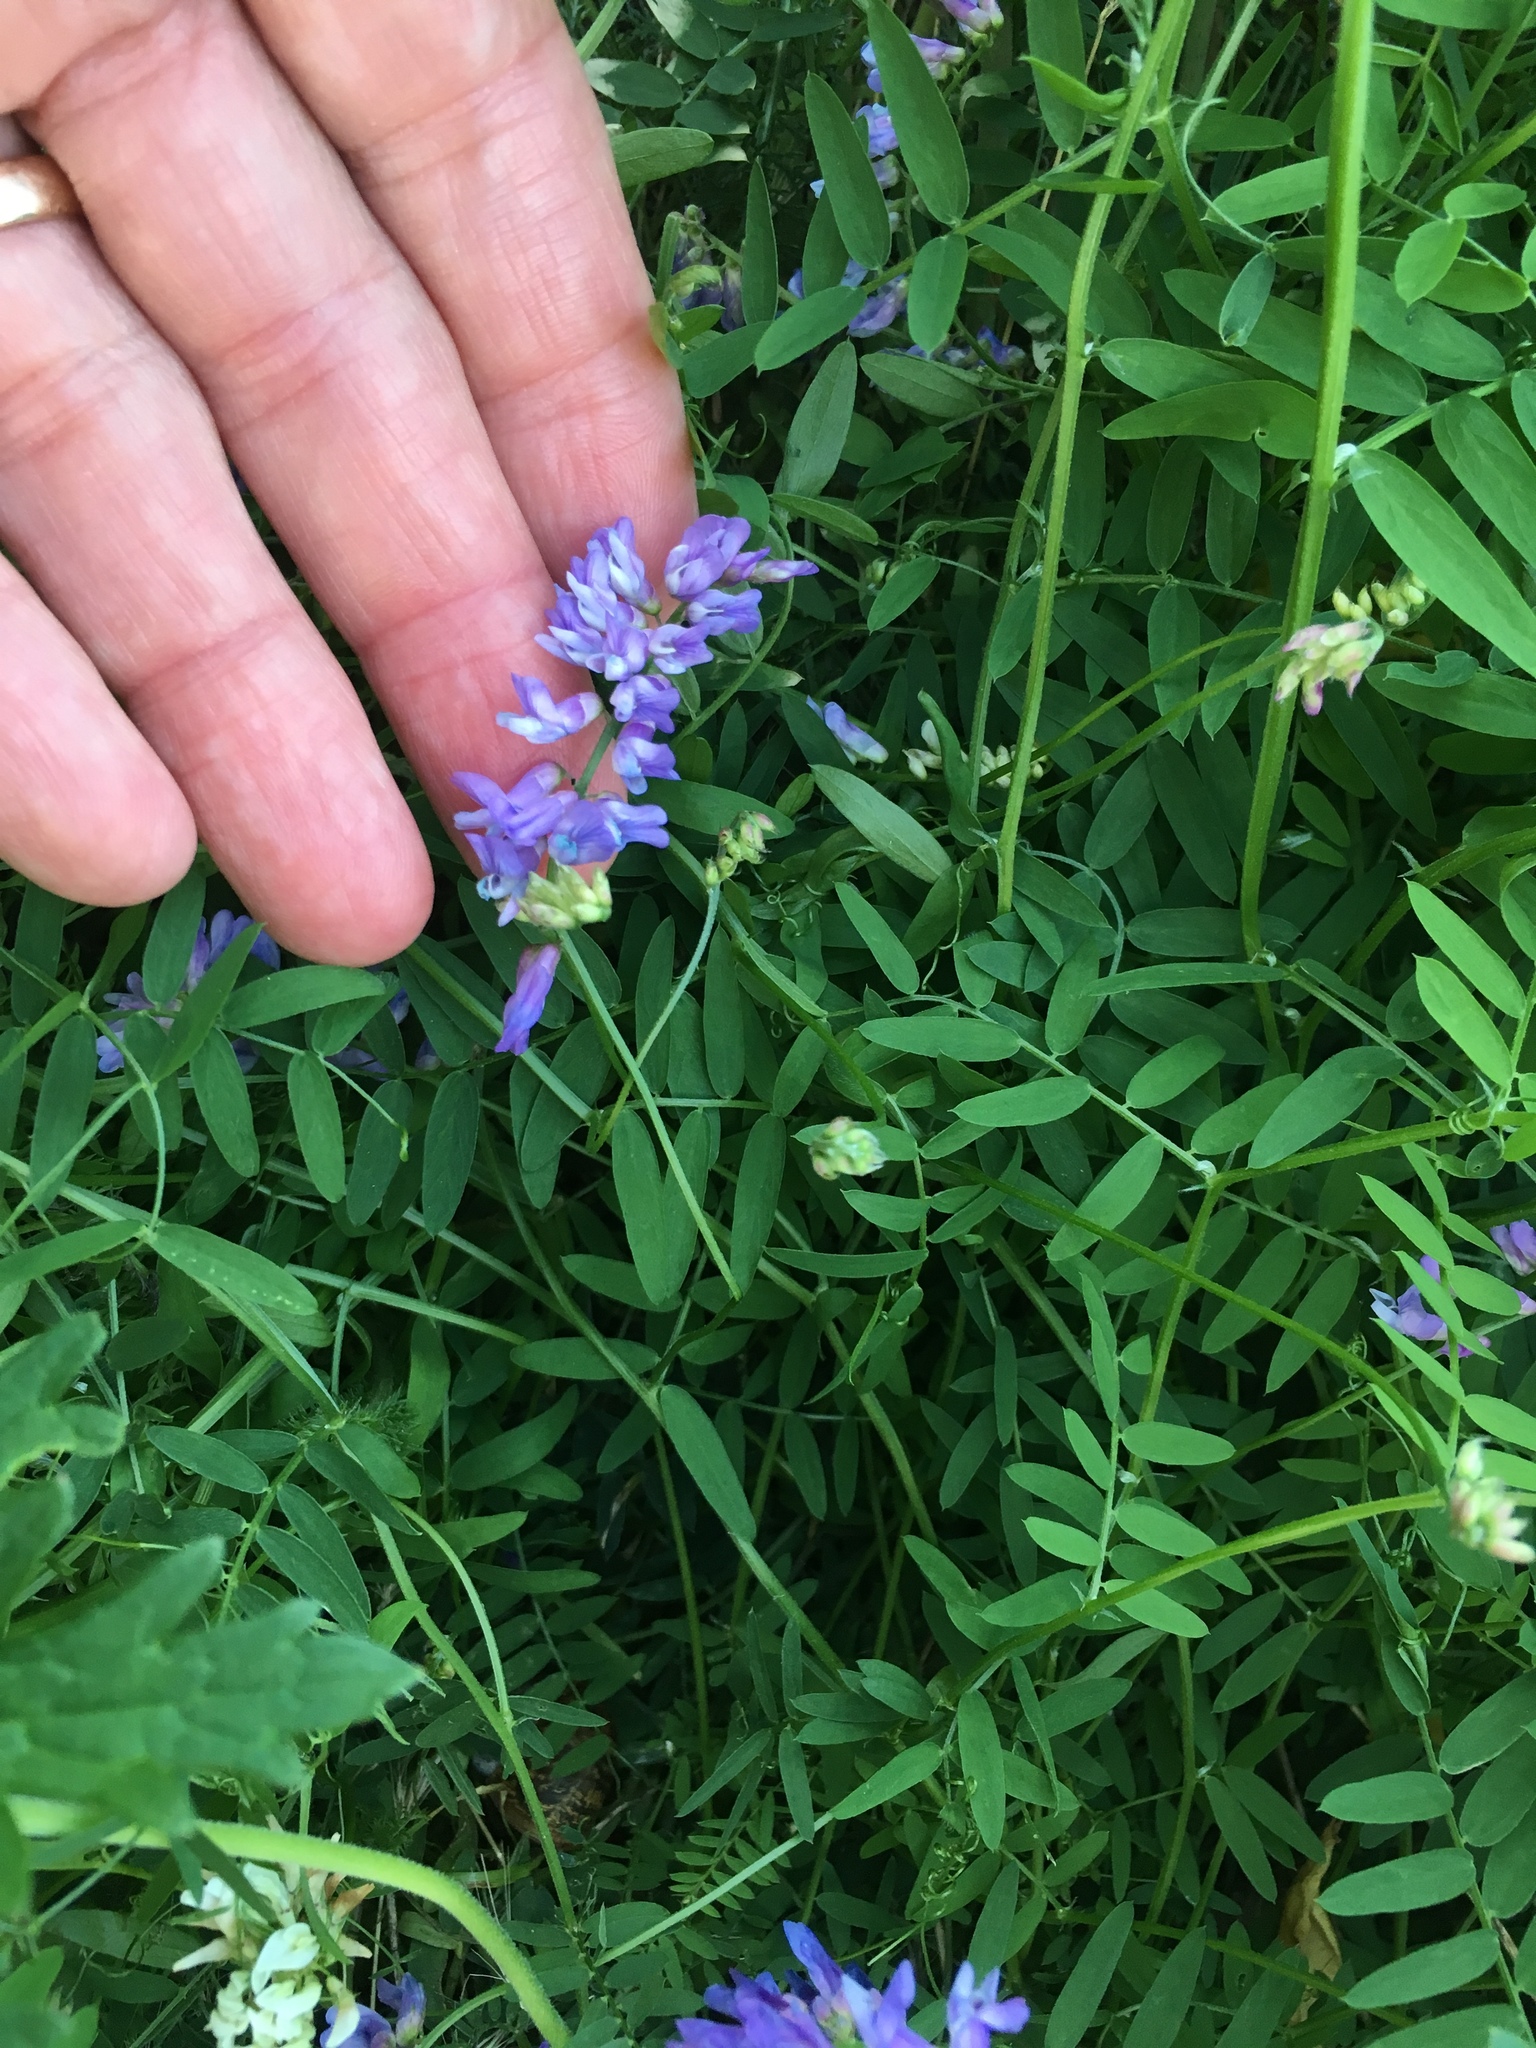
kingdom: Plantae
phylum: Tracheophyta
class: Magnoliopsida
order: Fabales
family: Fabaceae
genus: Vicia
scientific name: Vicia cracca
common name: Bird vetch
